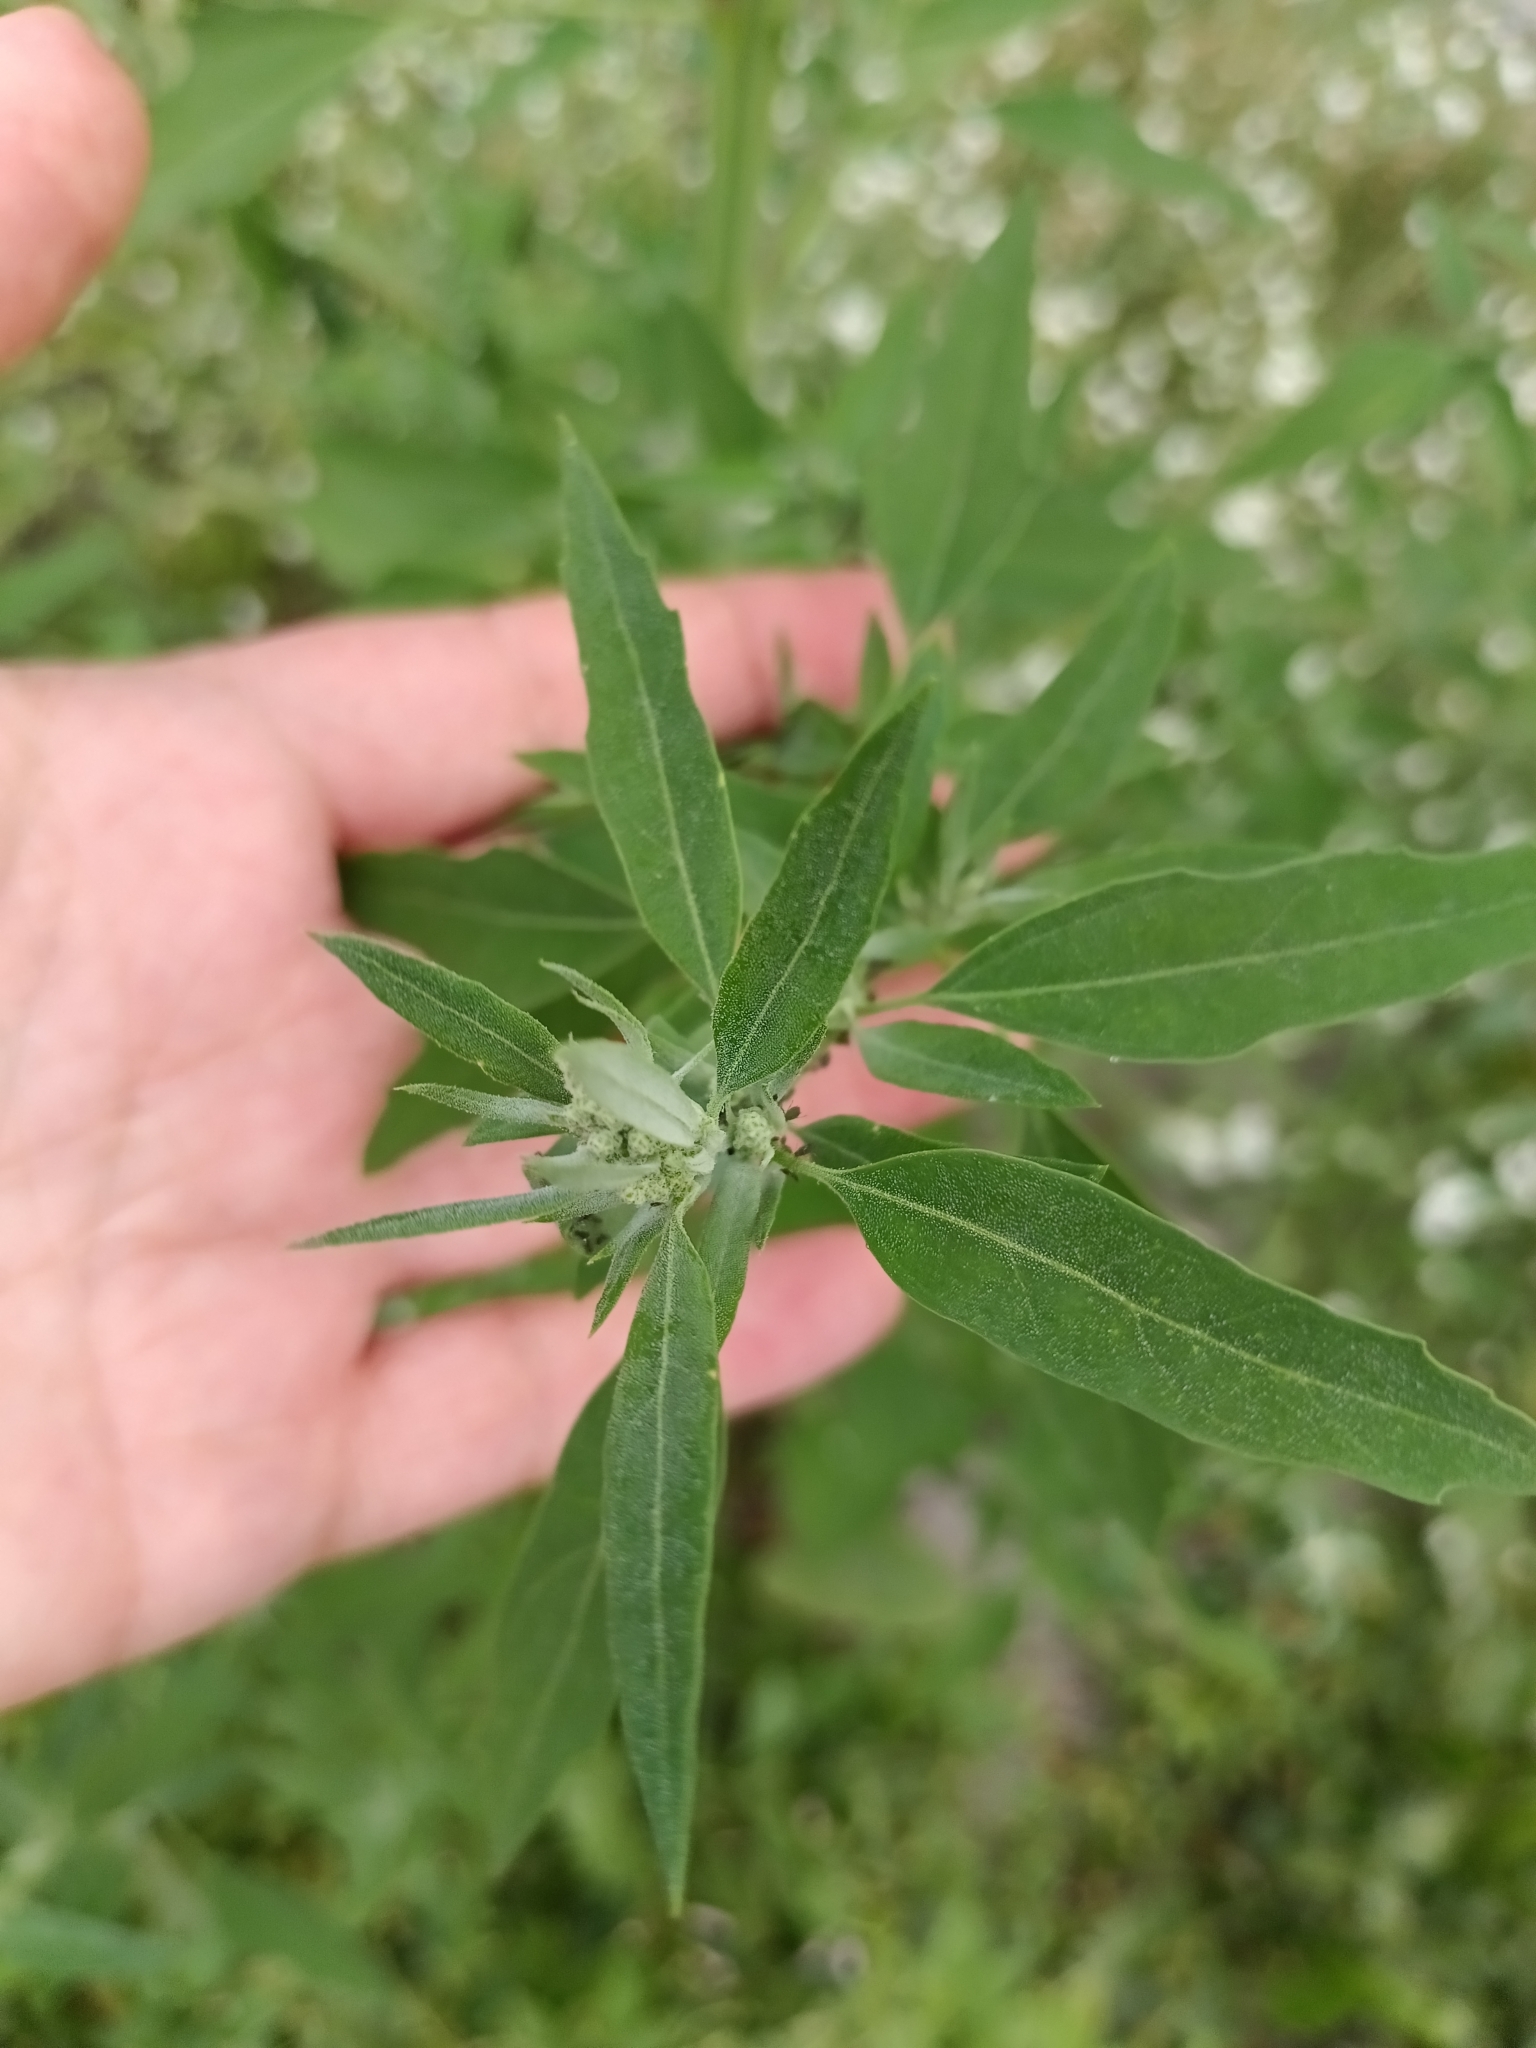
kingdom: Plantae
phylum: Tracheophyta
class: Magnoliopsida
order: Caryophyllales
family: Amaranthaceae
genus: Chenopodium
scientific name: Chenopodium album
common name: Fat-hen
